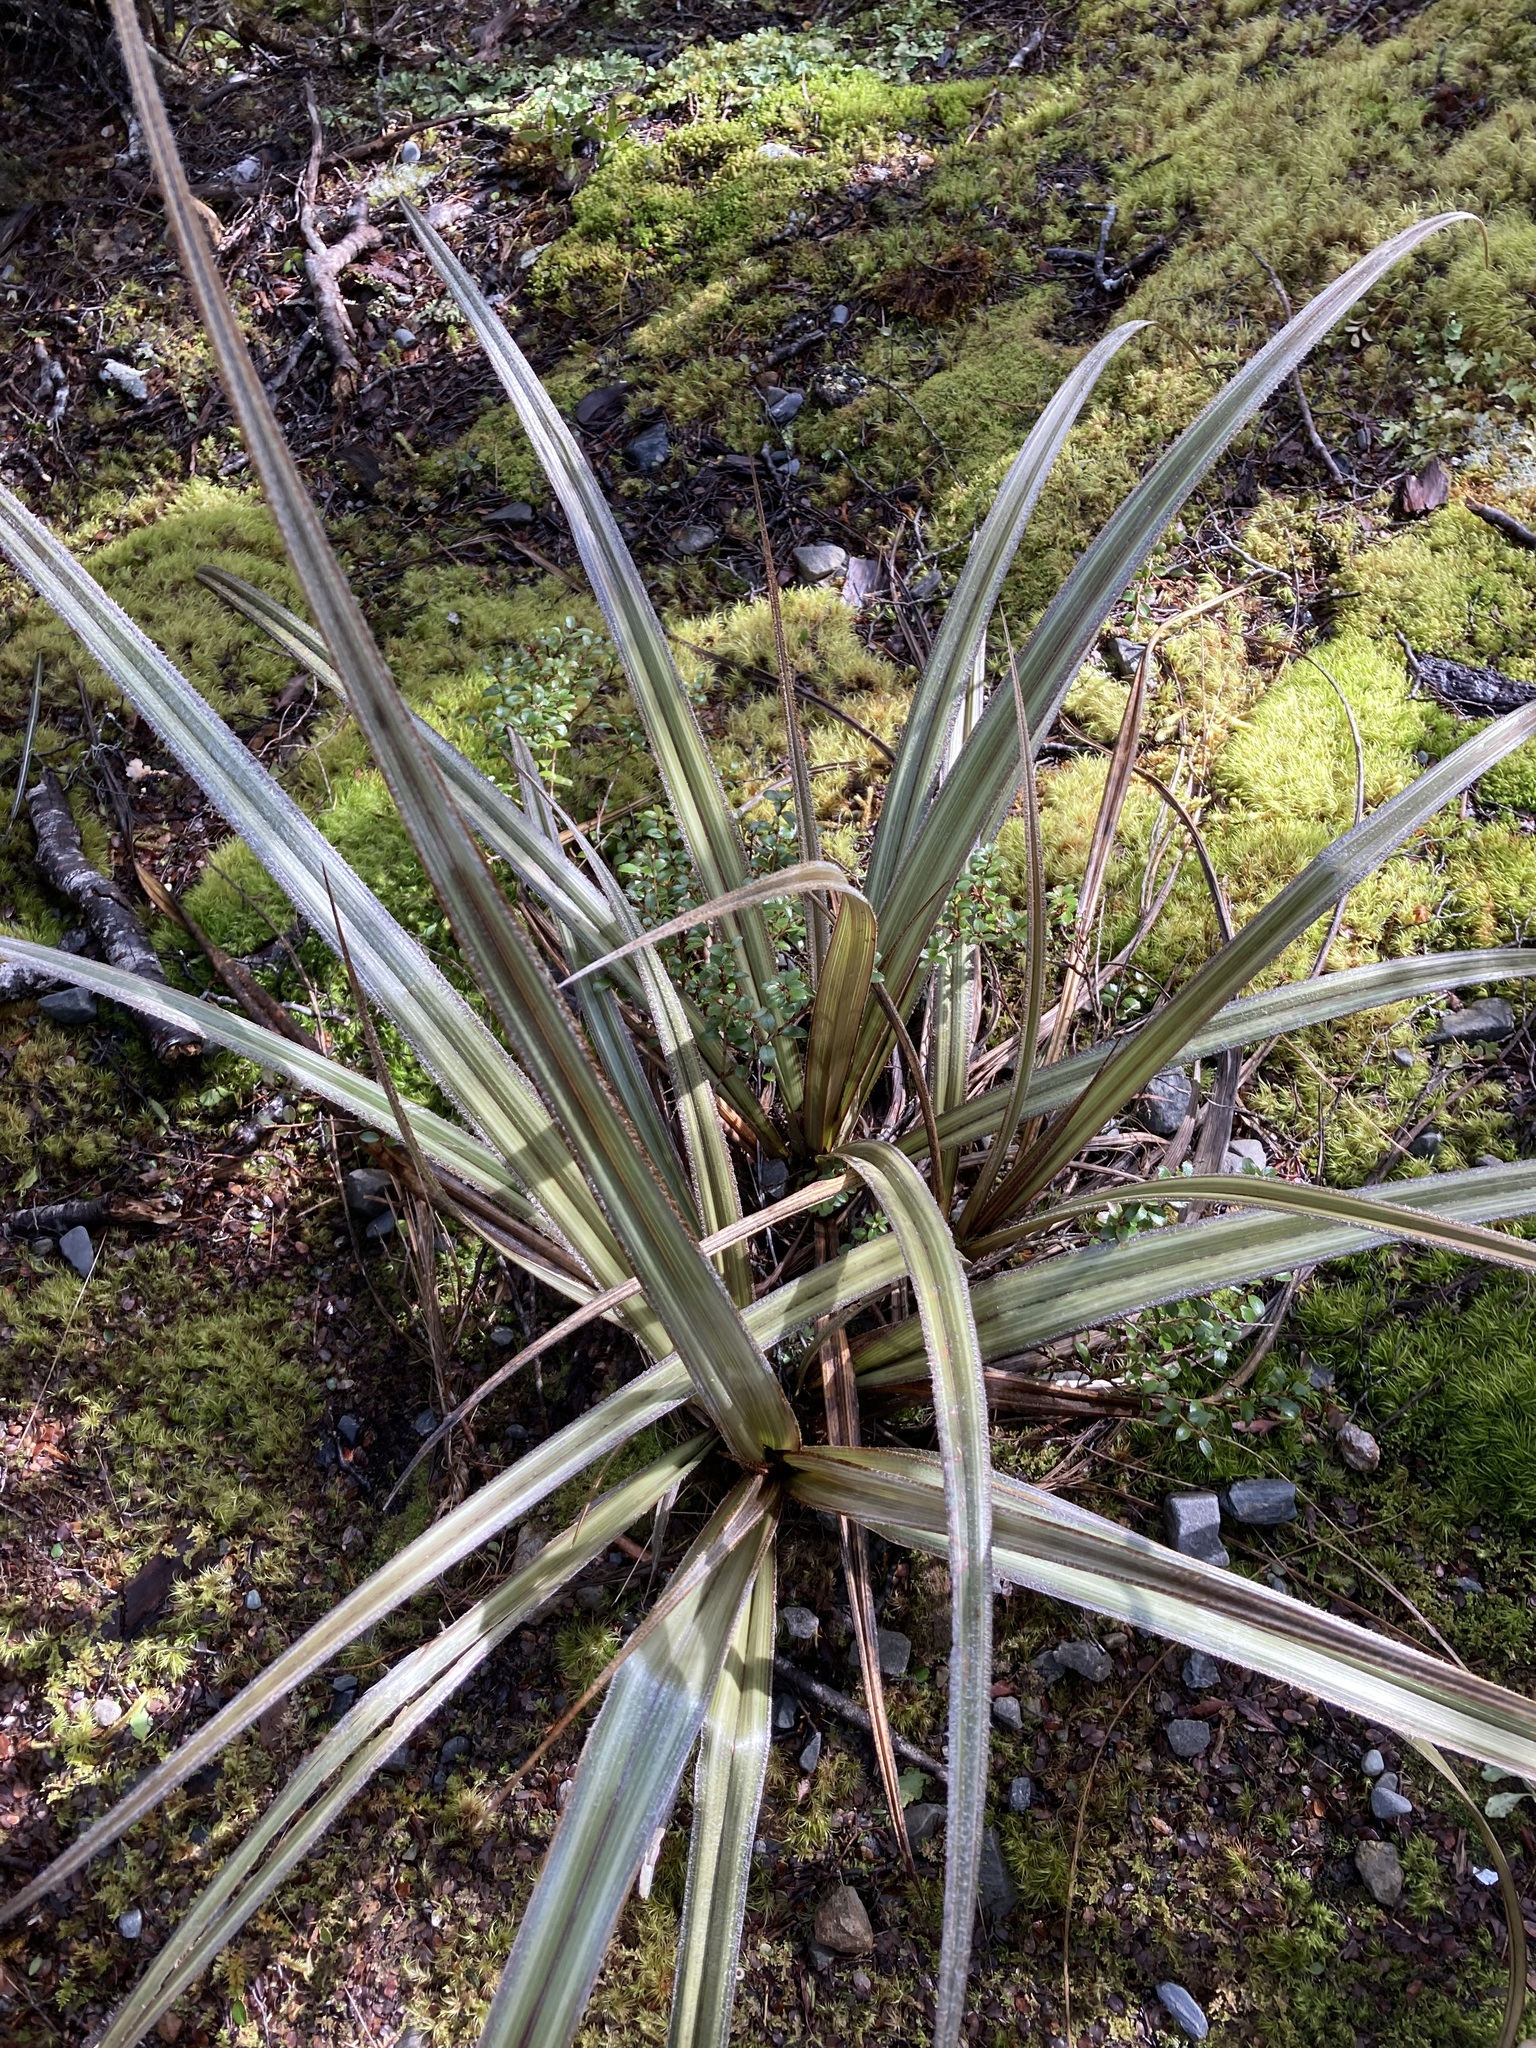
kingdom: Plantae
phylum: Tracheophyta
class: Liliopsida
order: Asparagales
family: Asteliaceae
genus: Astelia
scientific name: Astelia nervosa
